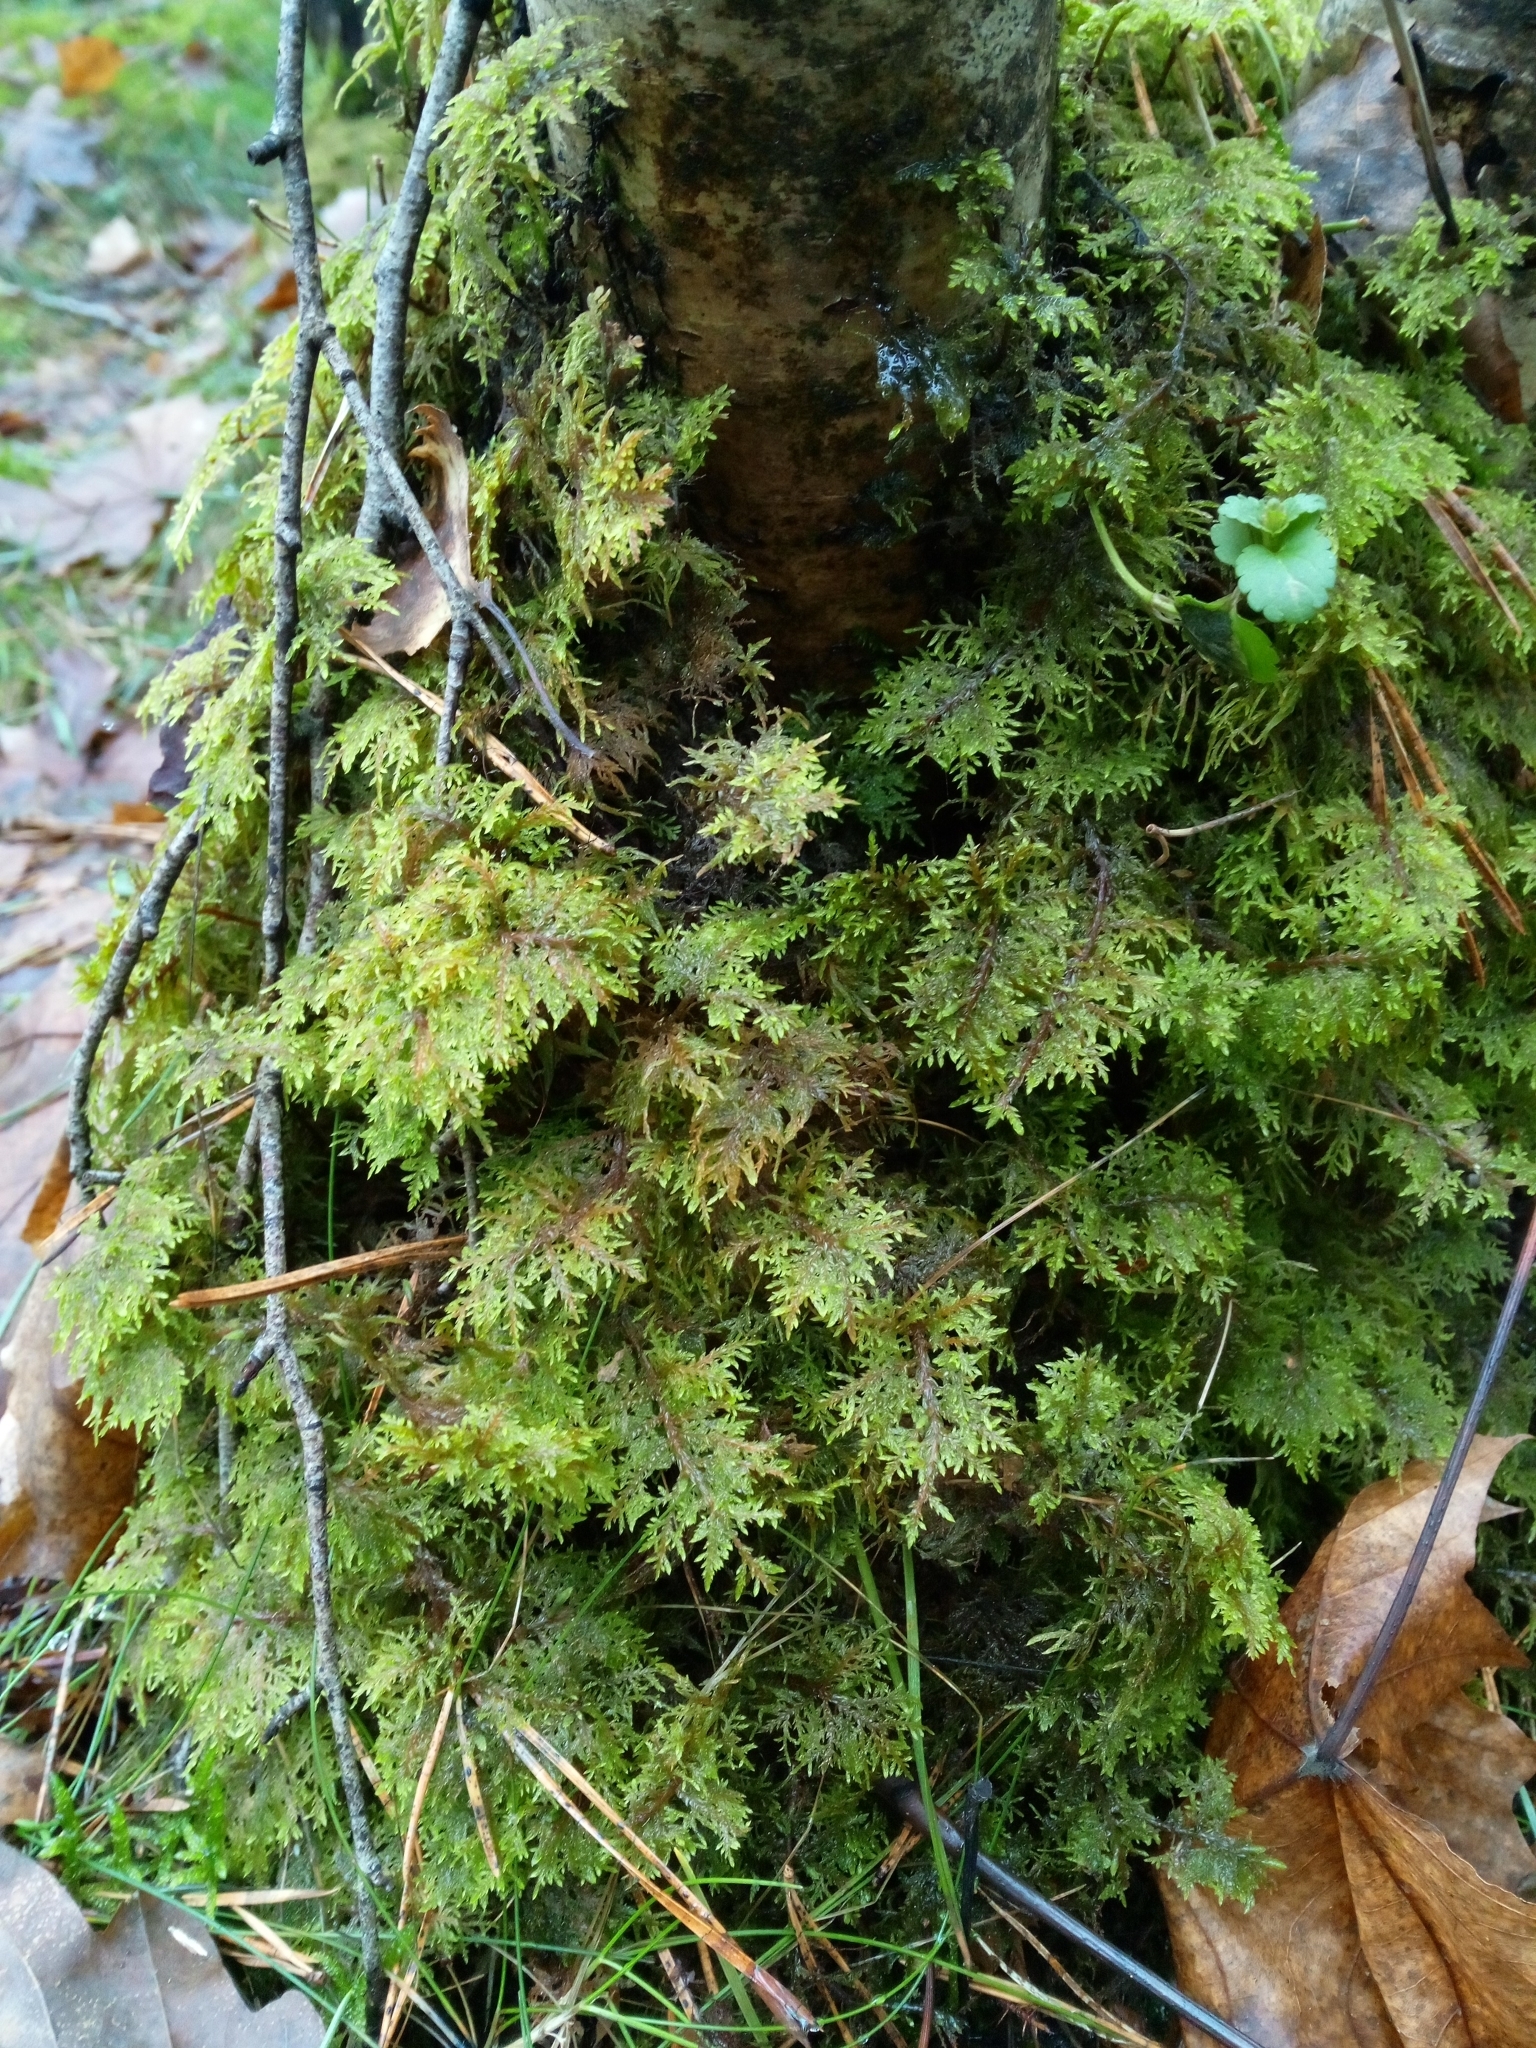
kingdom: Plantae
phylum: Bryophyta
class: Bryopsida
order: Hypnales
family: Hylocomiaceae
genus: Hylocomium
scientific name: Hylocomium splendens
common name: Stairstep moss
